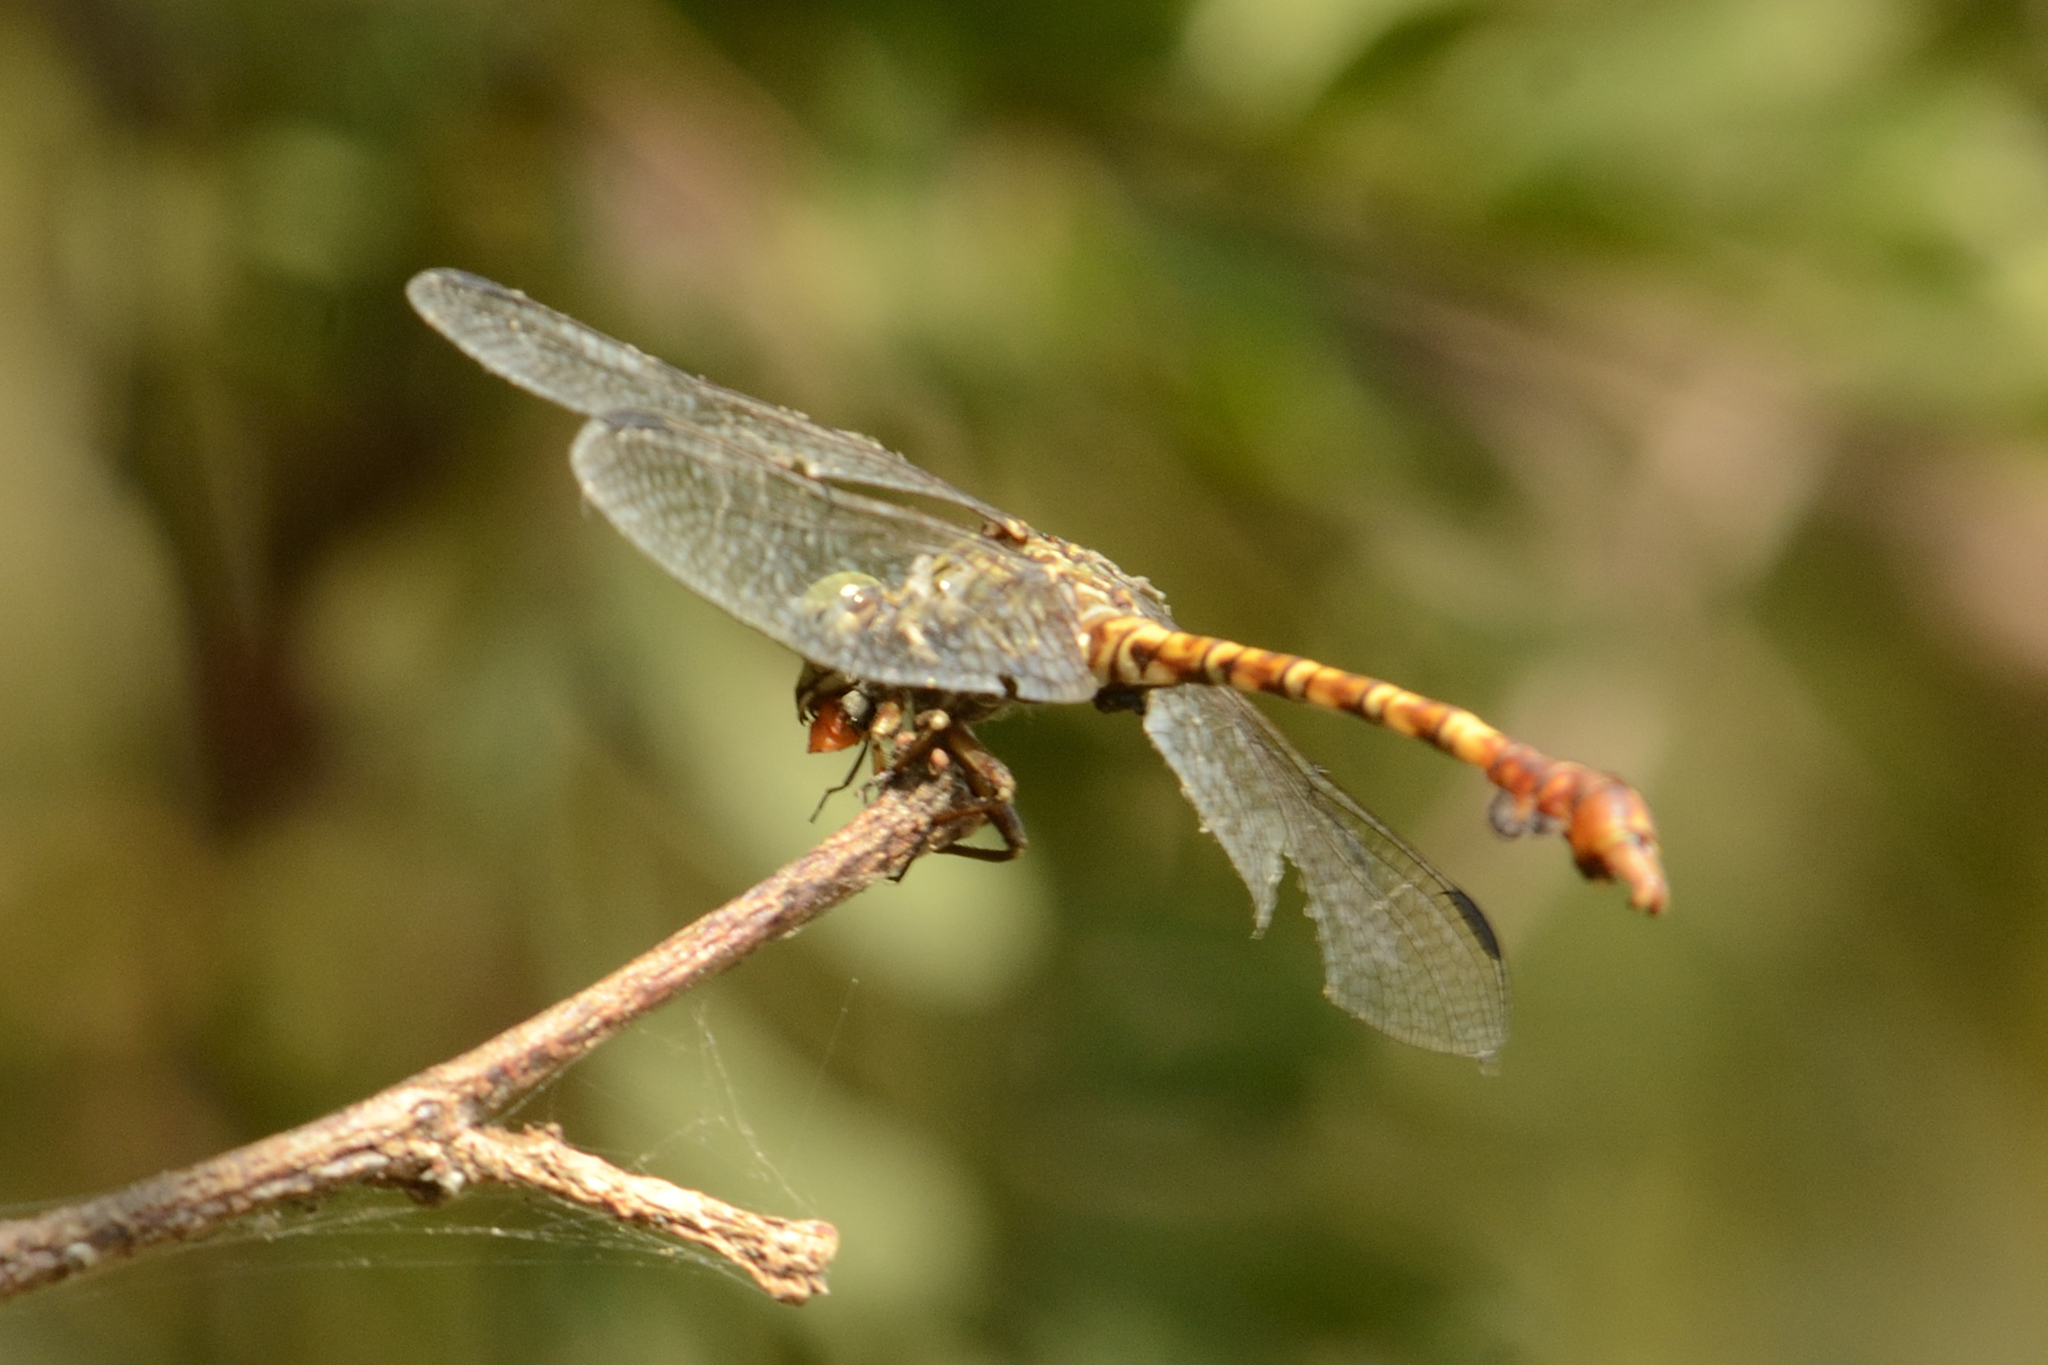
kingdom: Animalia
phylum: Arthropoda
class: Insecta
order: Odonata
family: Gomphidae
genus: Paragomphus
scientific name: Paragomphus nyasicus
